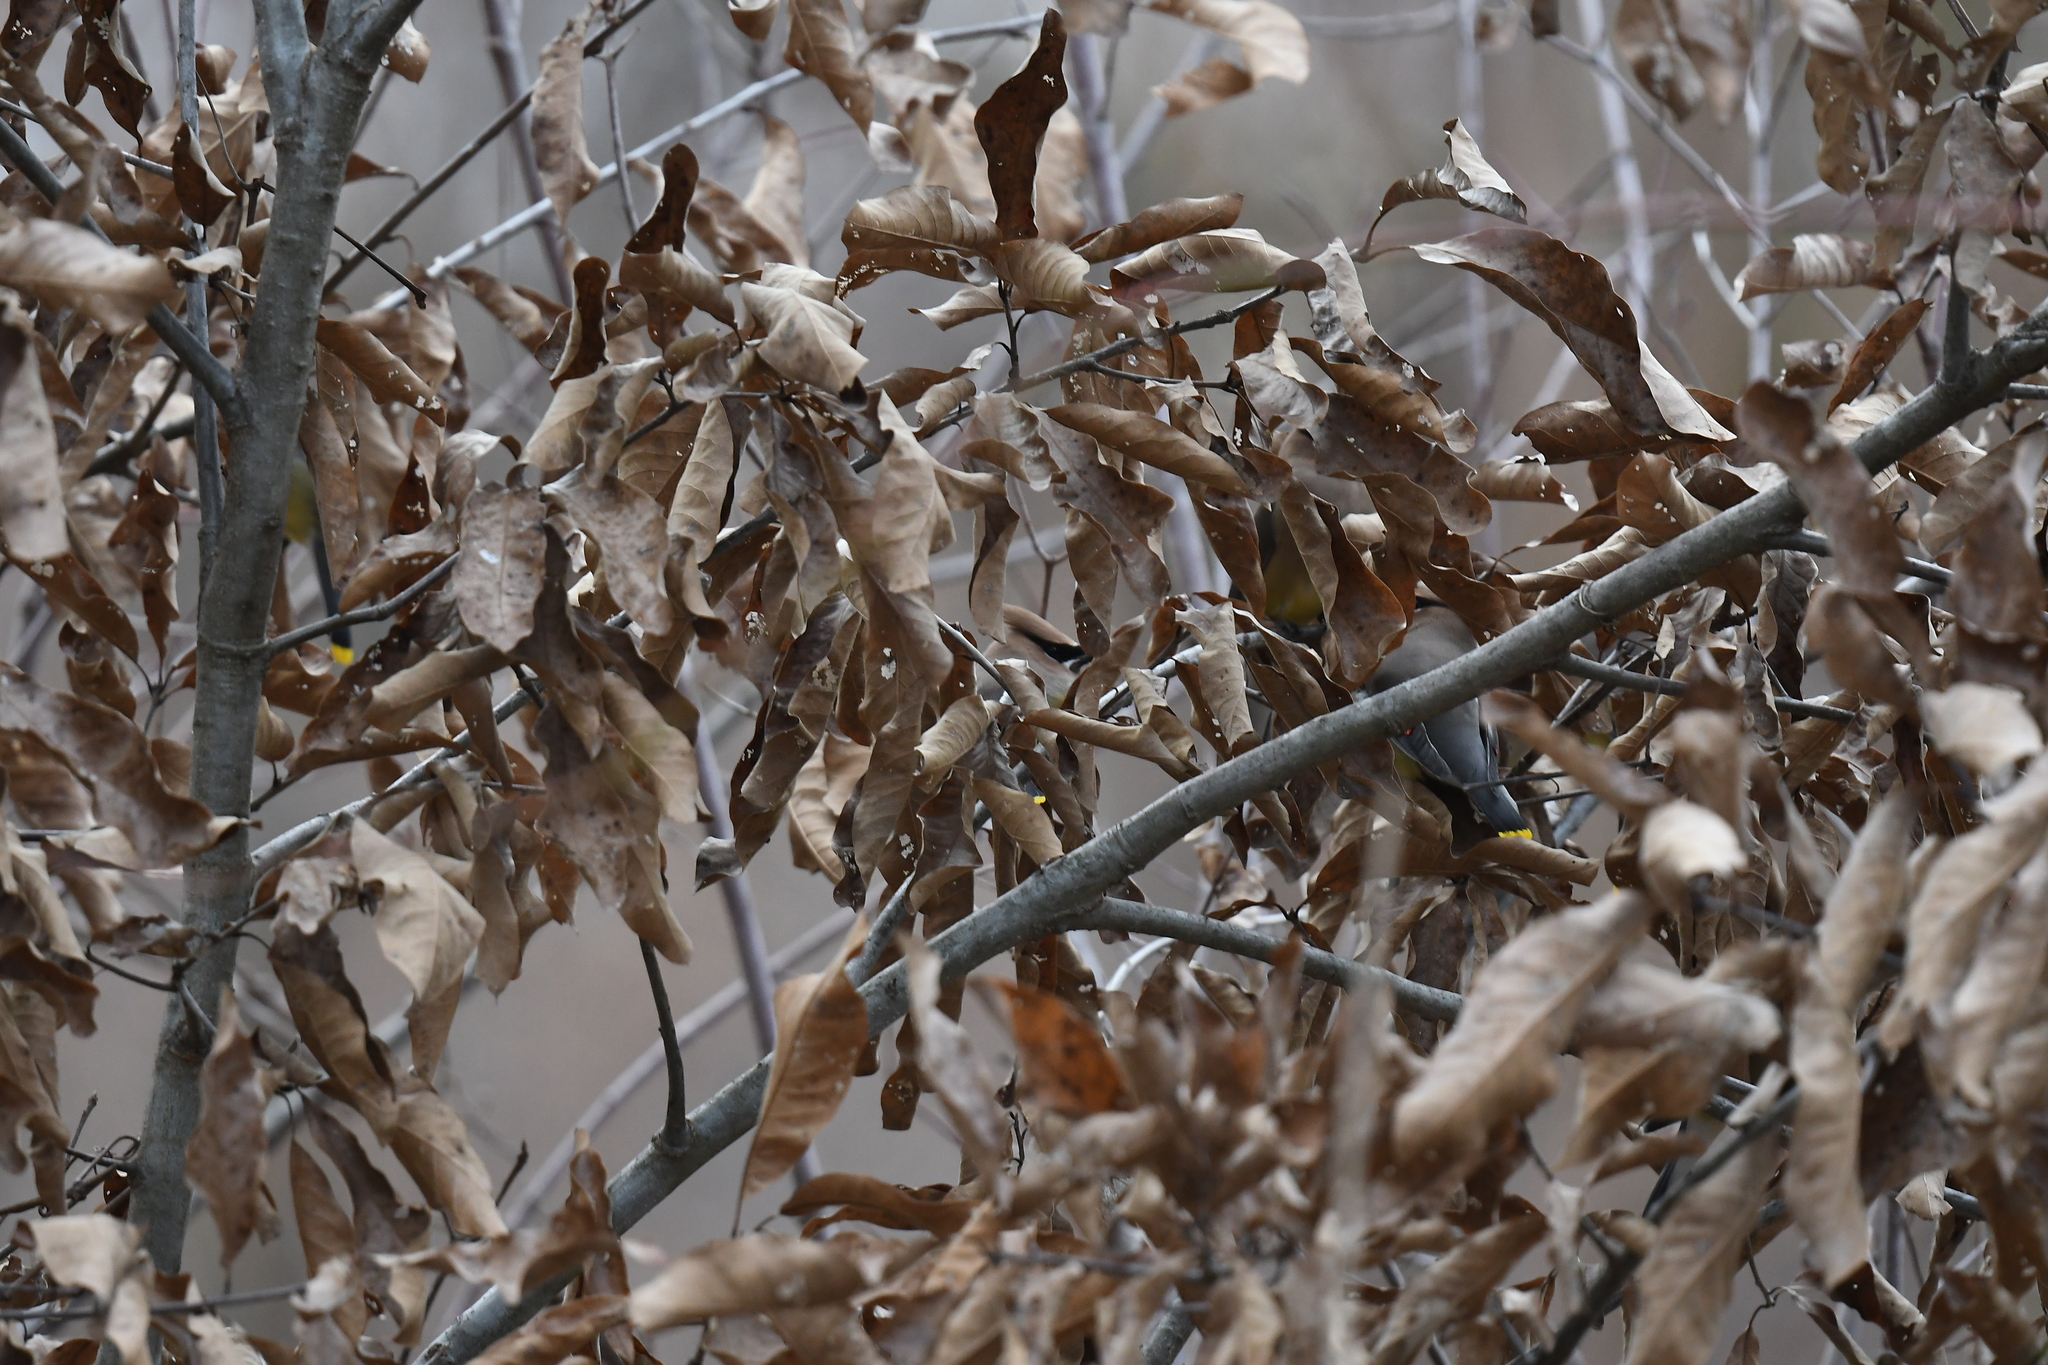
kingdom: Animalia
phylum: Chordata
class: Aves
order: Passeriformes
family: Bombycillidae
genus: Bombycilla
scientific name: Bombycilla cedrorum
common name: Cedar waxwing
